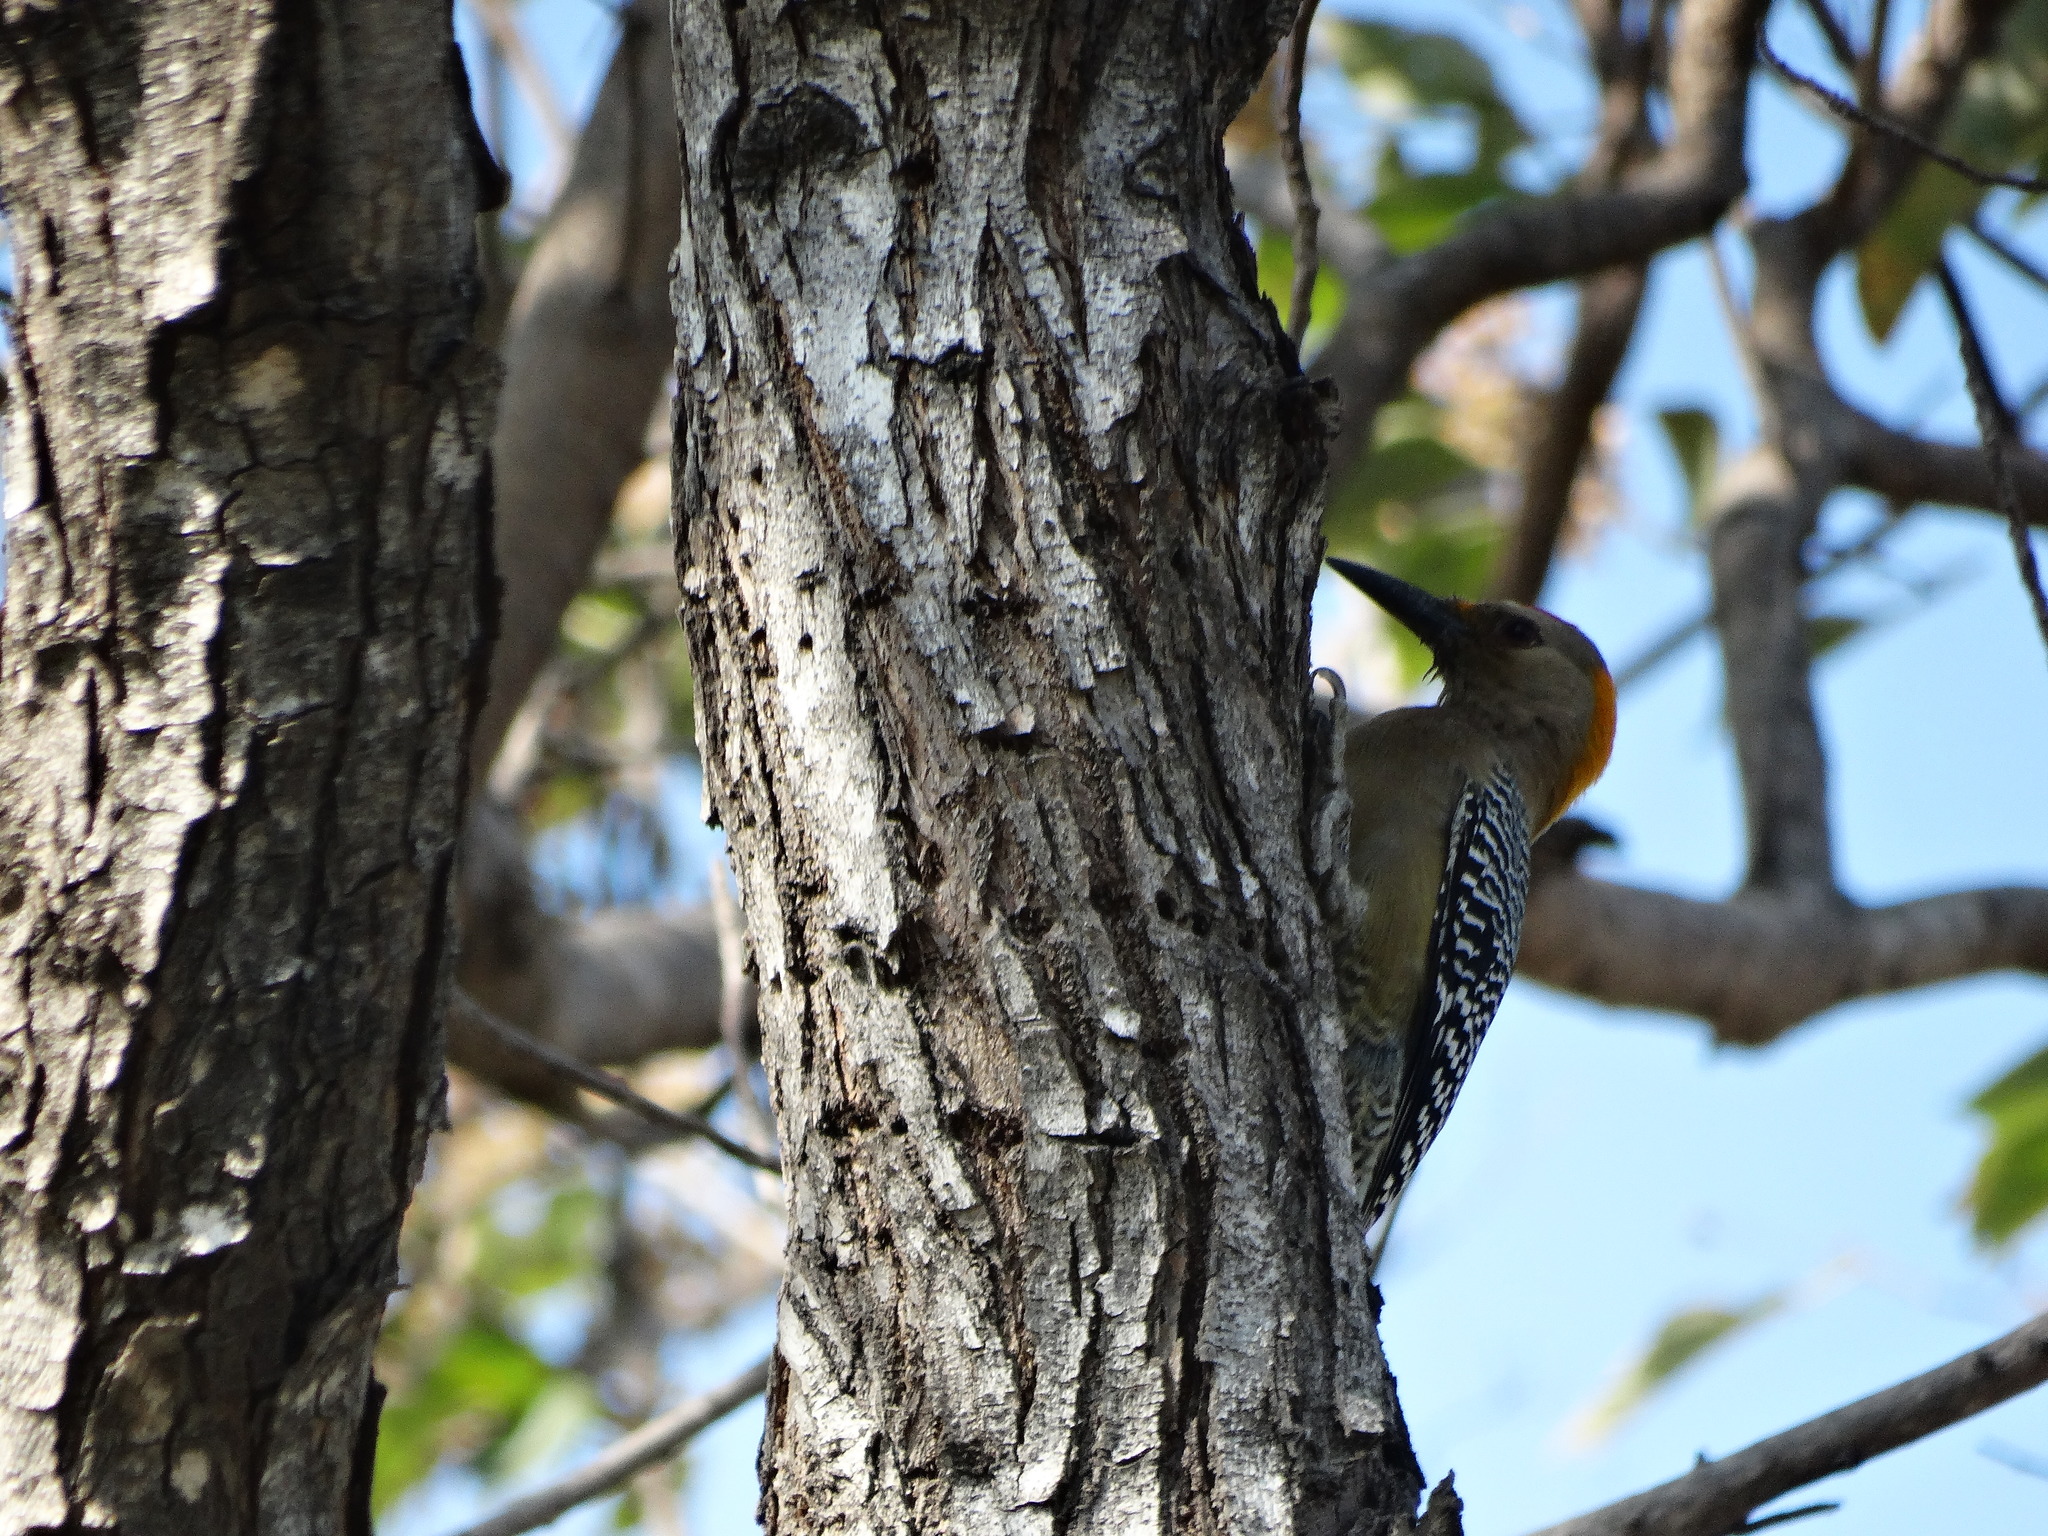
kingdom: Animalia
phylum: Chordata
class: Aves
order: Piciformes
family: Picidae
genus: Melanerpes
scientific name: Melanerpes aurifrons
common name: Golden-fronted woodpecker
